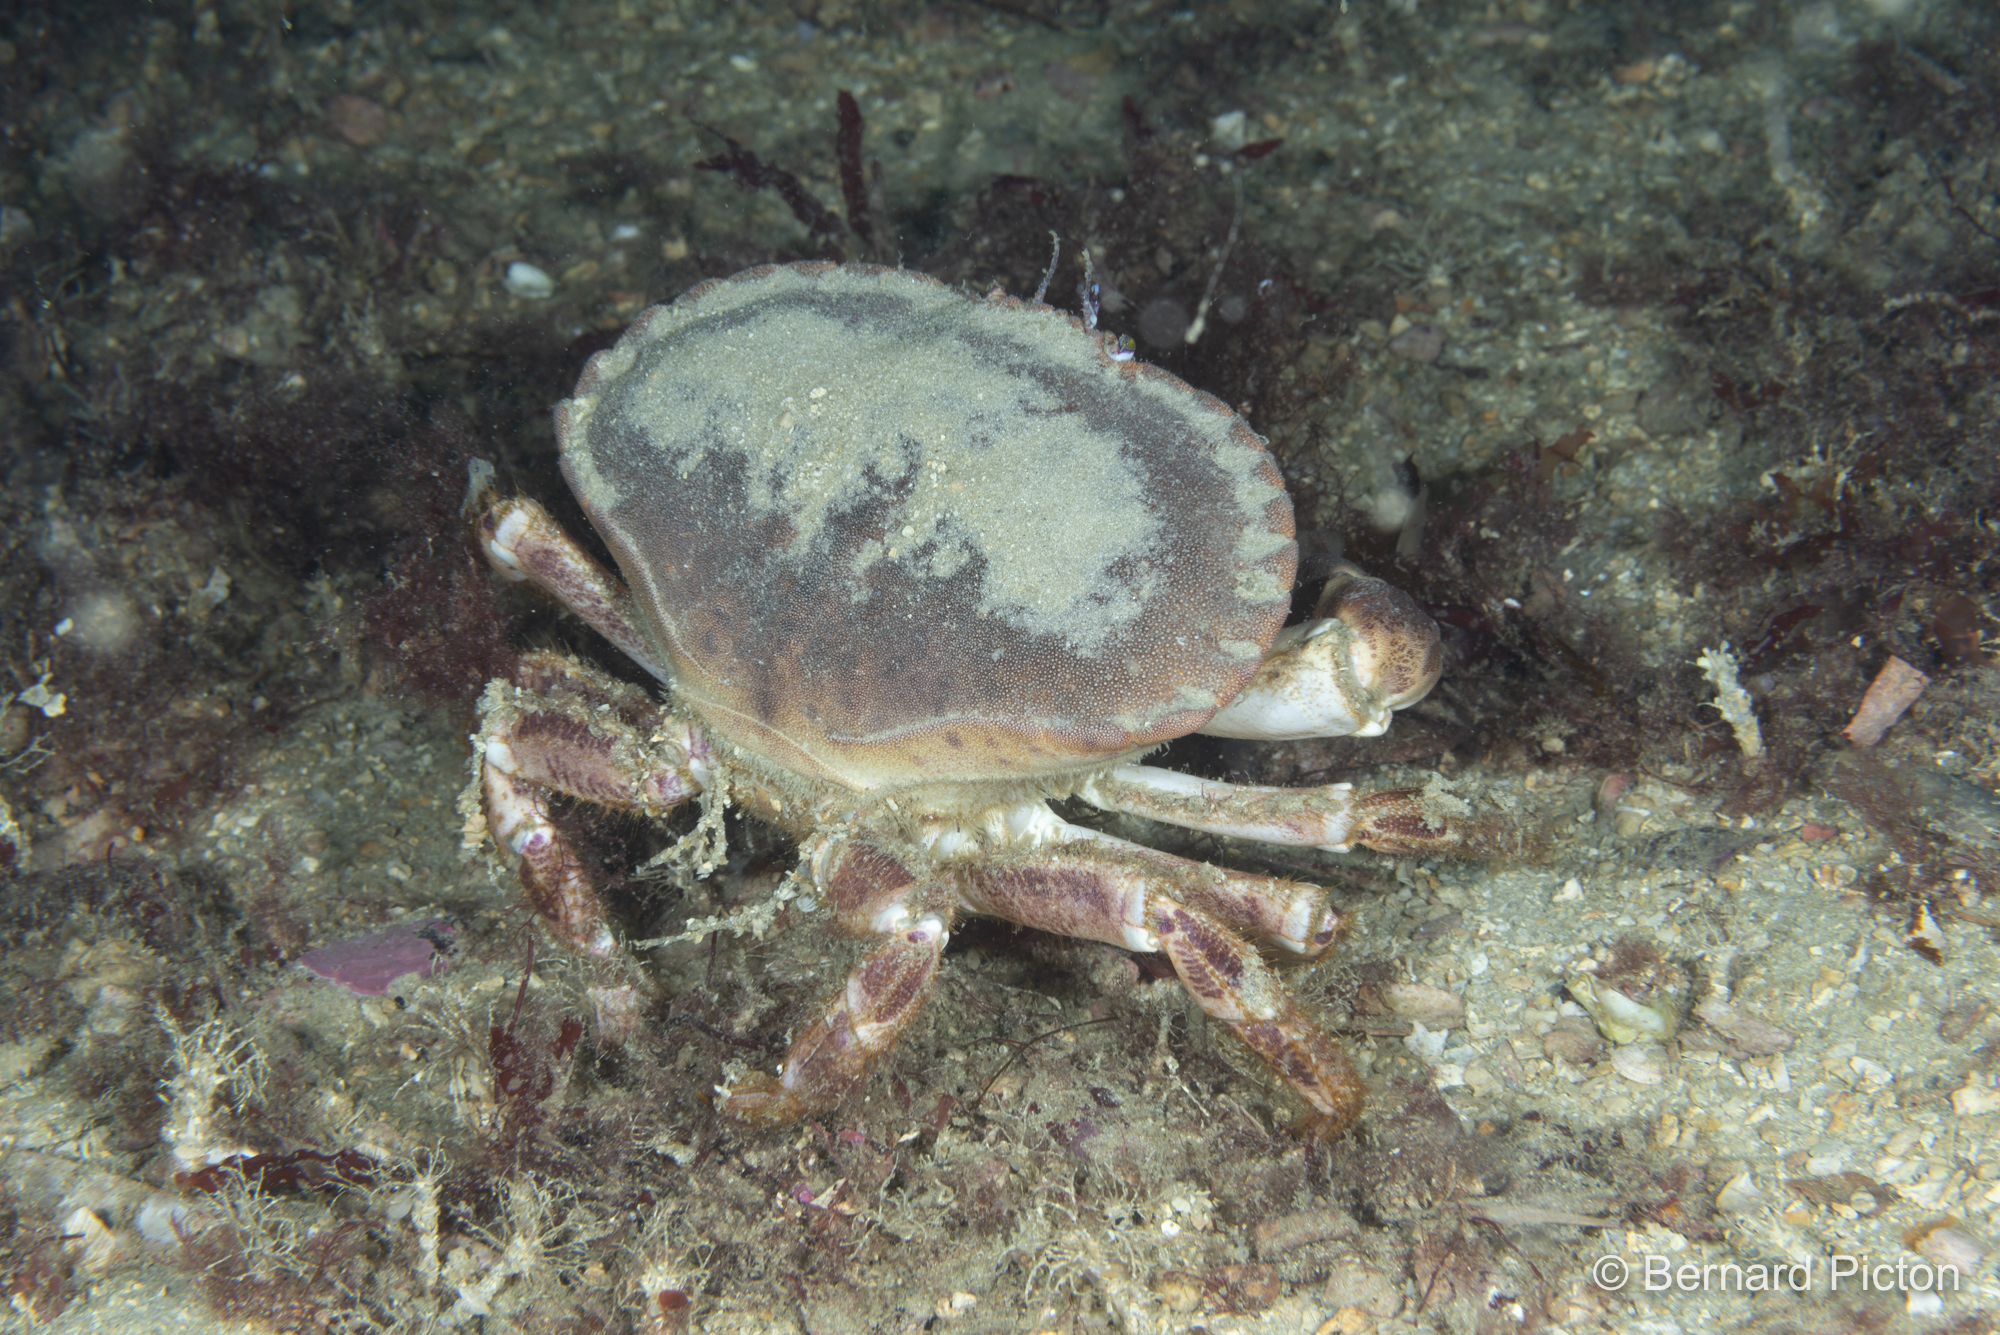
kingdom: Animalia
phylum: Arthropoda
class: Malacostraca
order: Decapoda
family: Cancridae
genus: Cancer
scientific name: Cancer pagurus
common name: Edible crab
